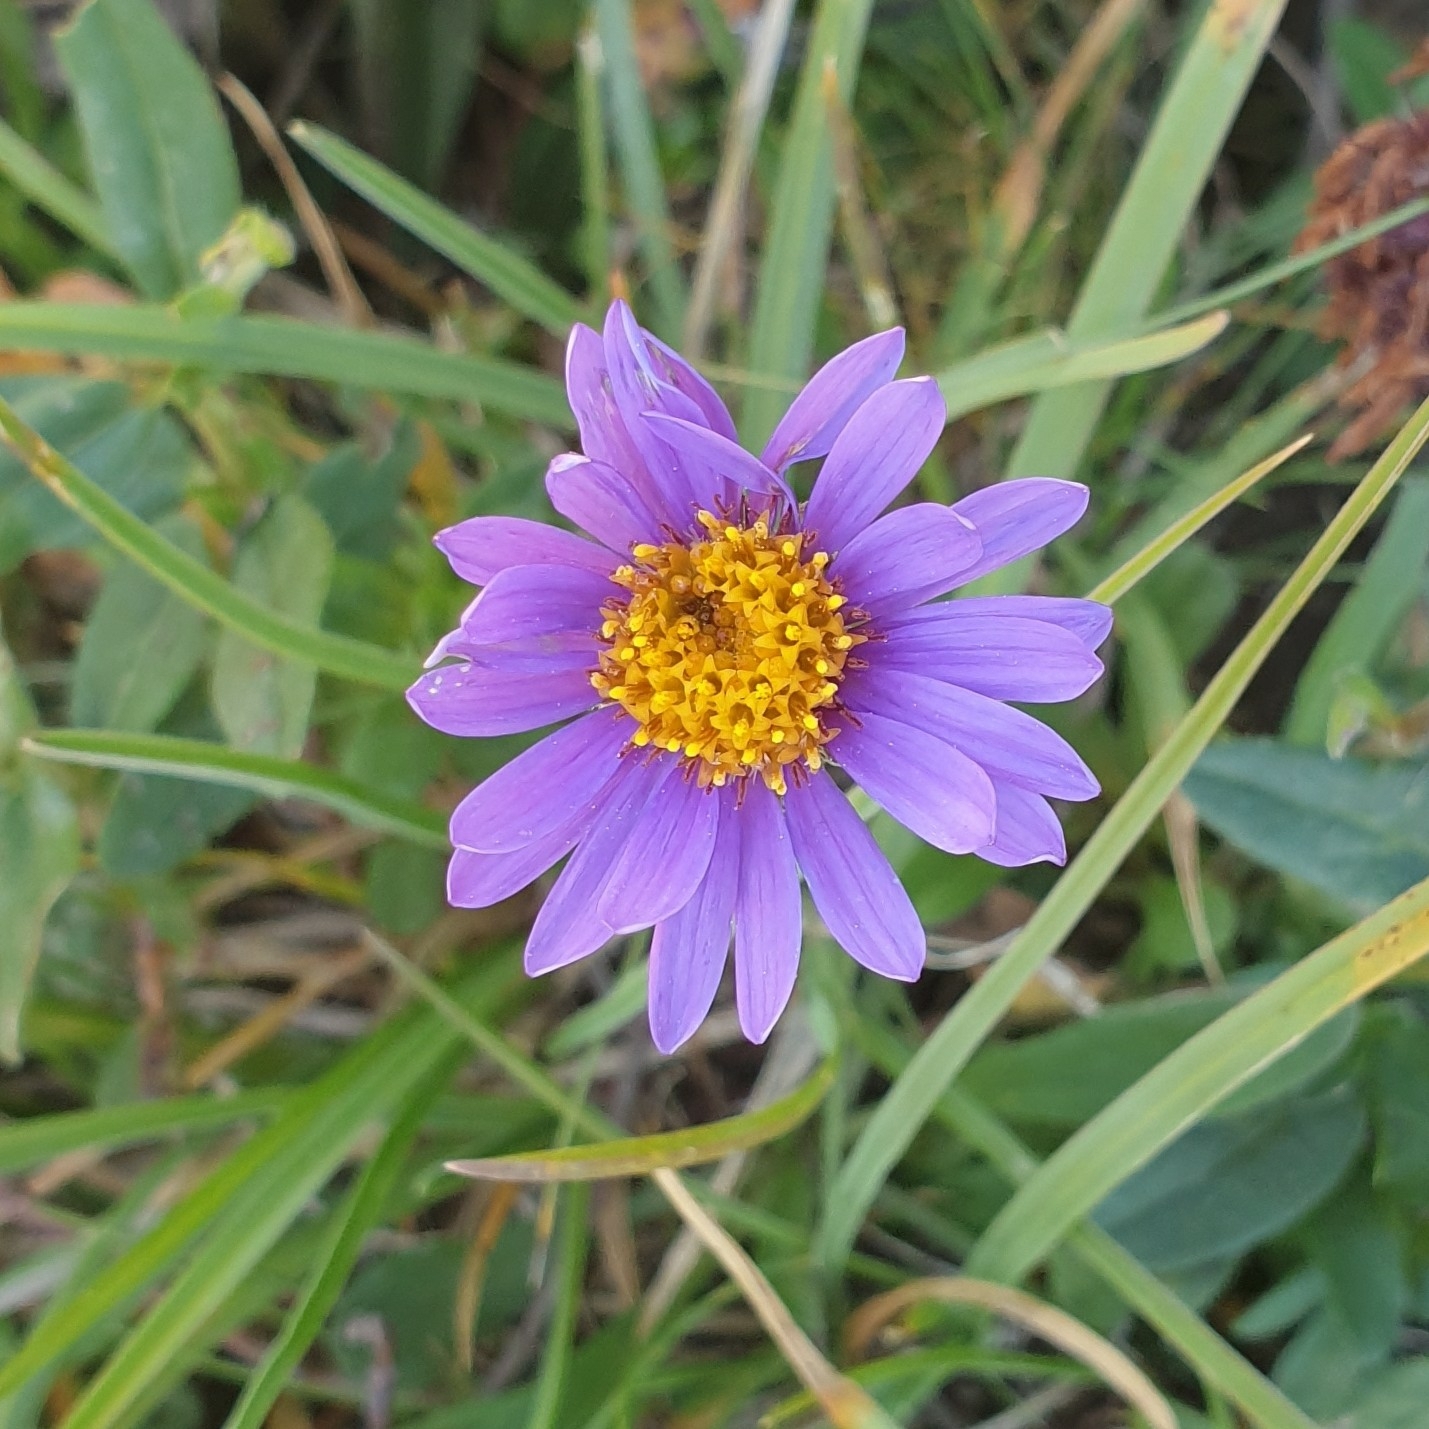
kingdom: Plantae
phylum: Tracheophyta
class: Magnoliopsida
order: Asterales
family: Asteraceae
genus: Aster
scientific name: Aster alpinus
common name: Alpine aster
